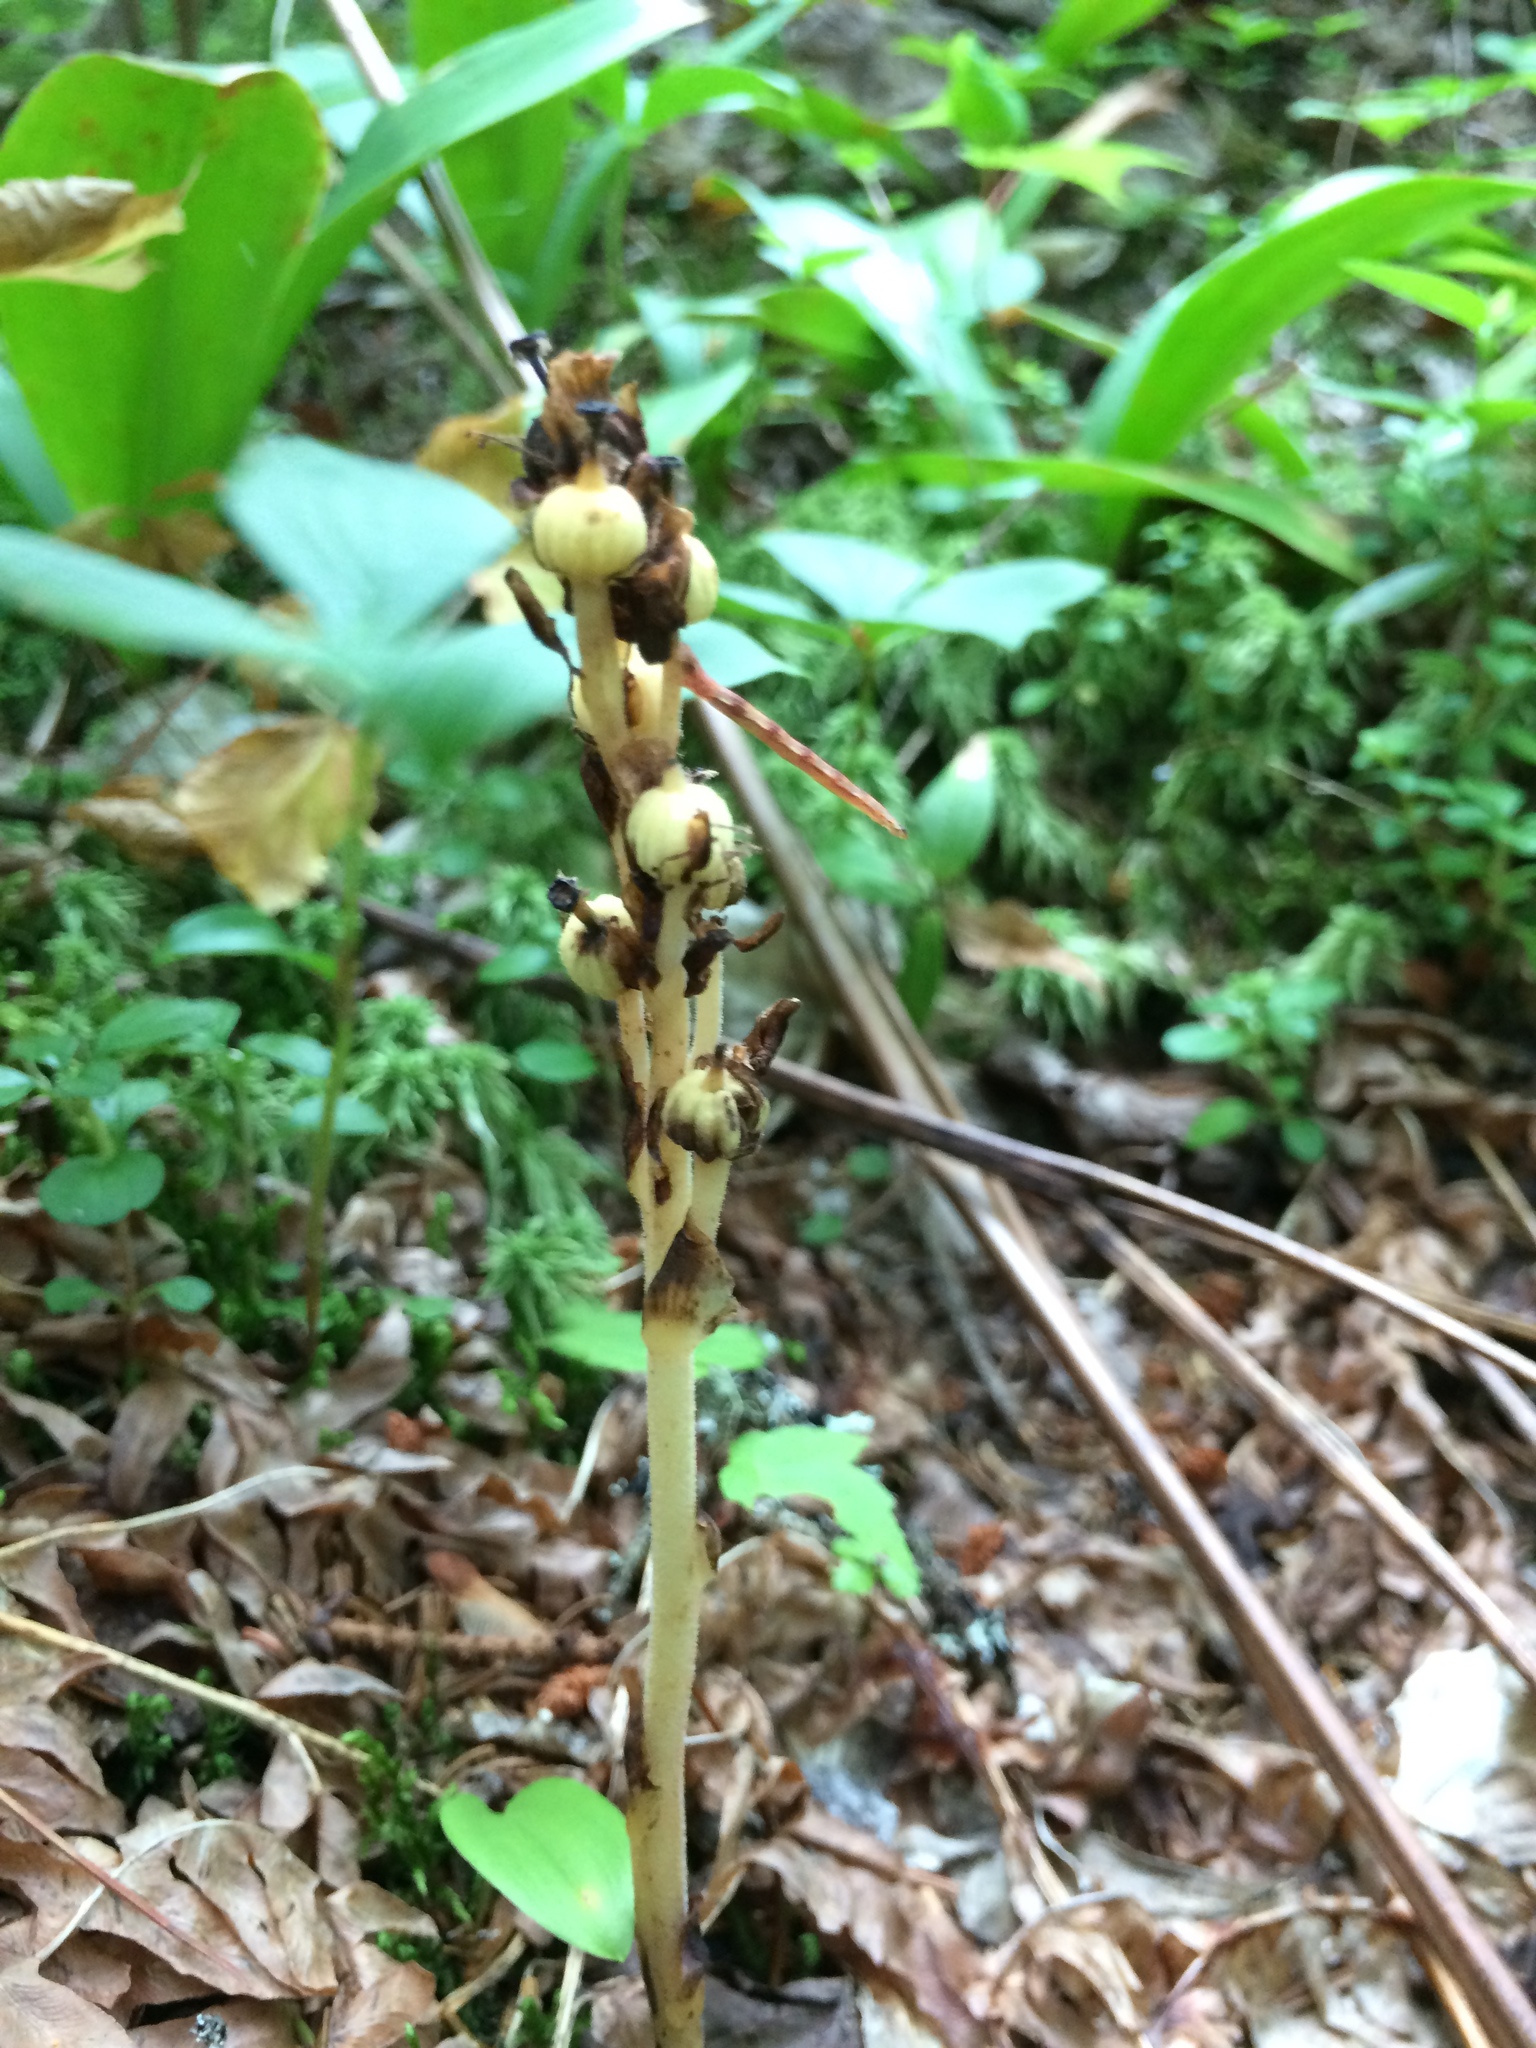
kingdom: Plantae
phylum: Tracheophyta
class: Magnoliopsida
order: Ericales
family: Ericaceae
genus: Hypopitys
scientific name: Hypopitys monotropa
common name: Yellow bird's-nest
